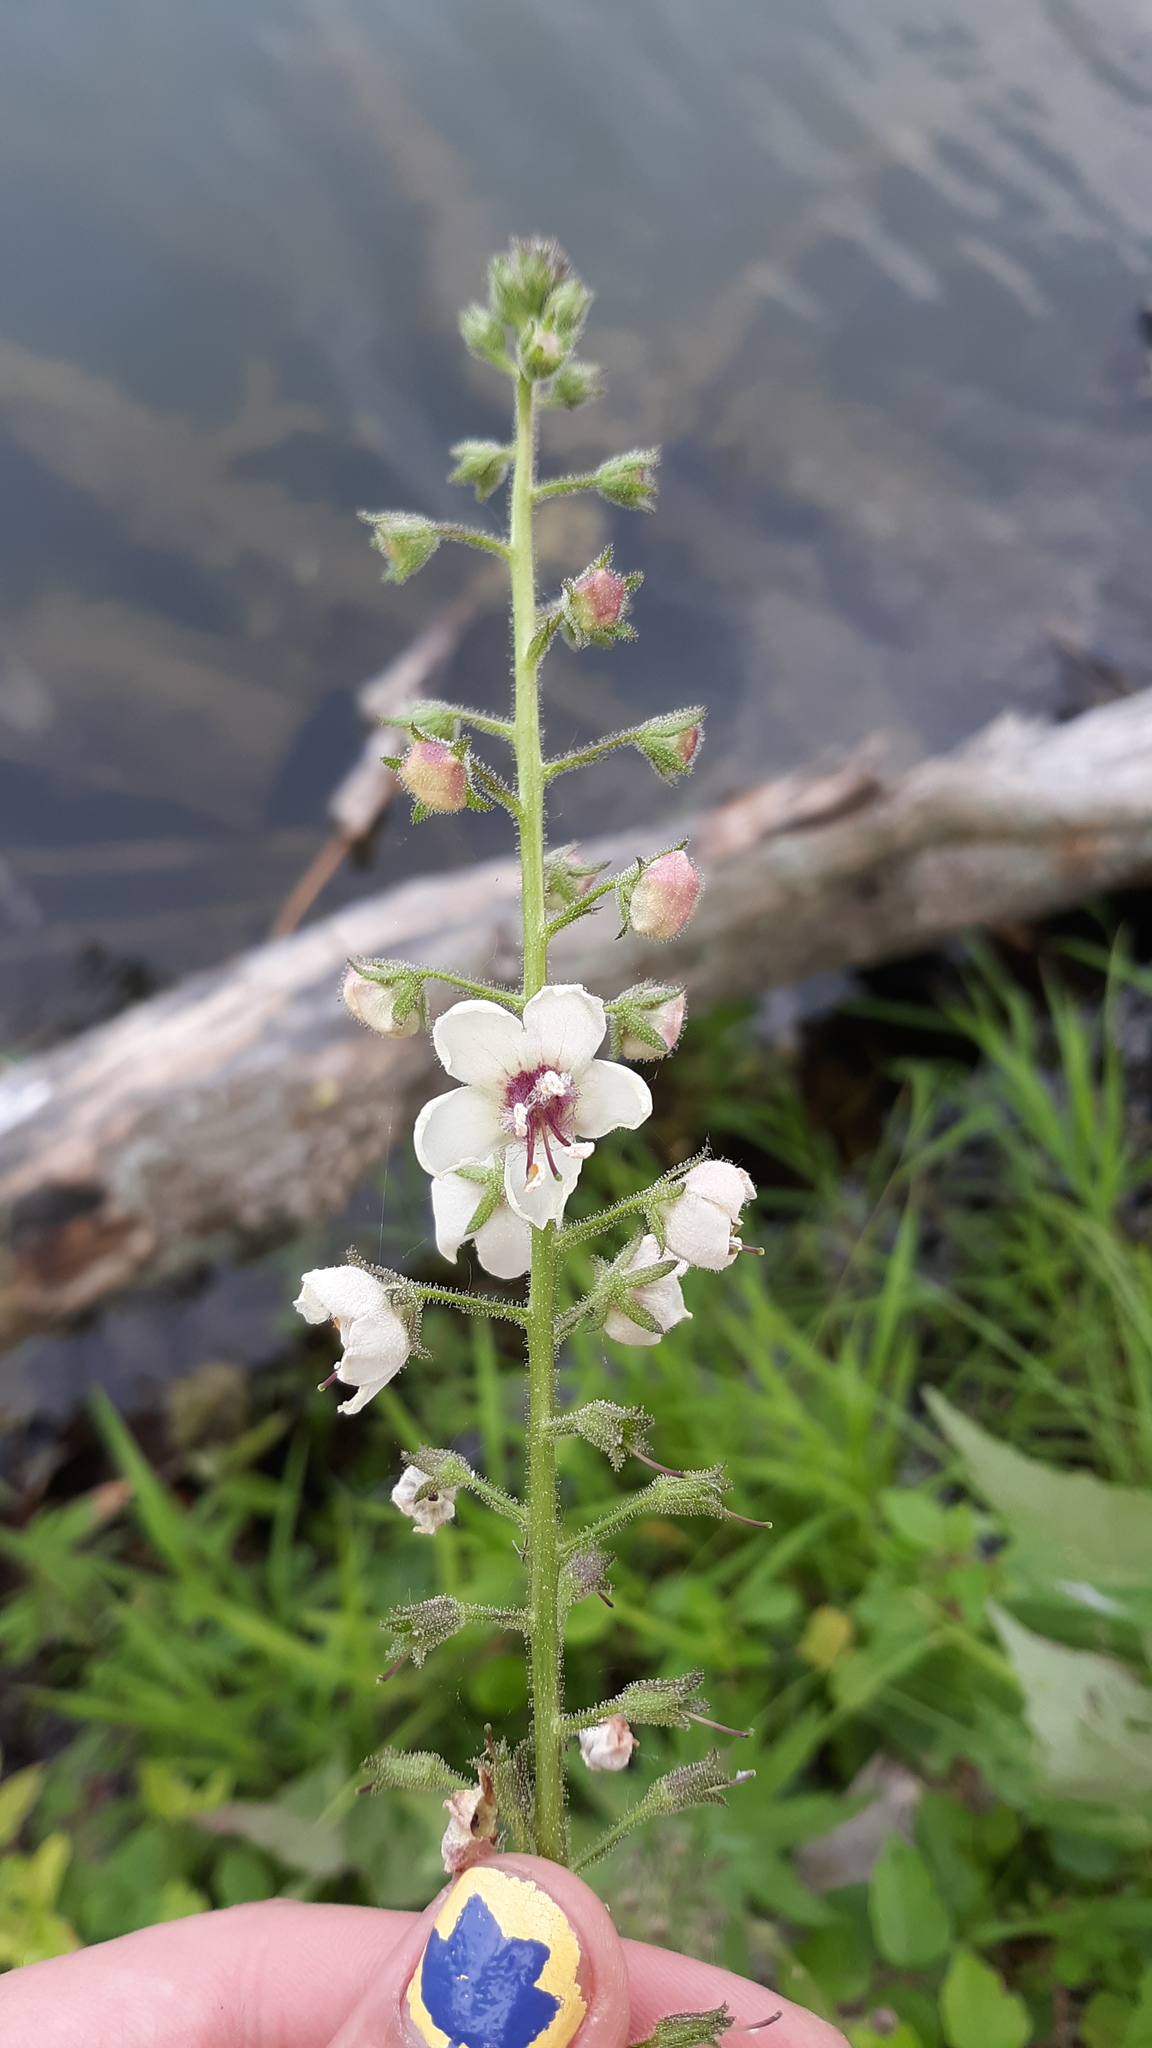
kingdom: Plantae
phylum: Tracheophyta
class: Magnoliopsida
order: Lamiales
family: Scrophulariaceae
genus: Verbascum
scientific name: Verbascum blattaria
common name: Moth mullein
